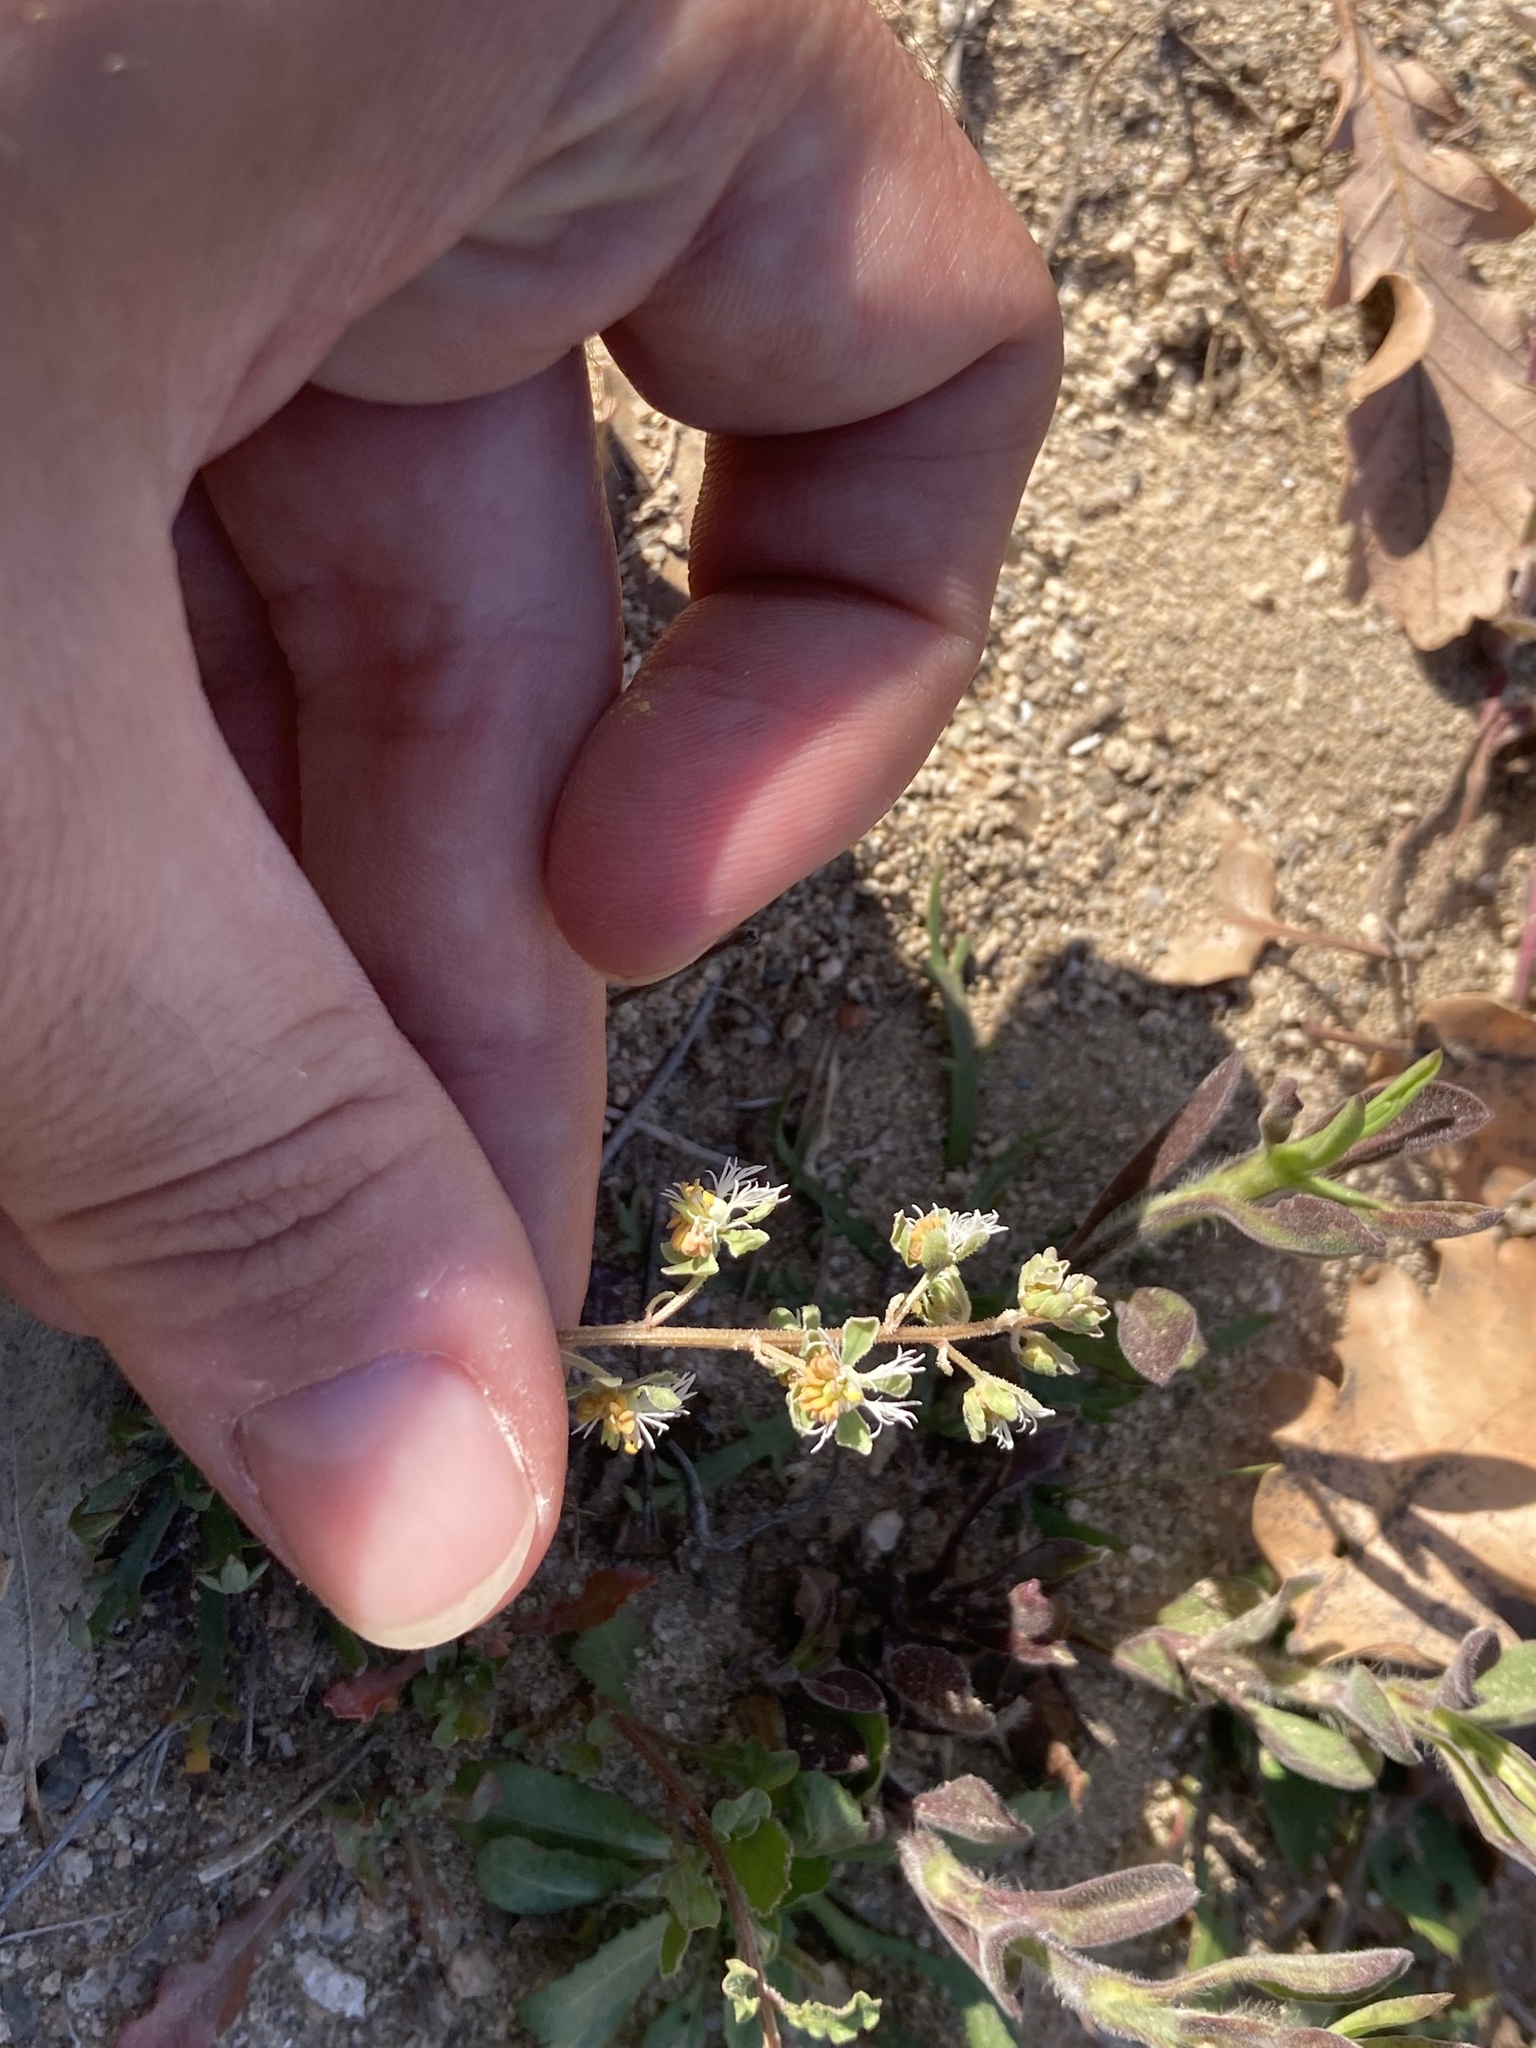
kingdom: Plantae
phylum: Tracheophyta
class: Magnoliopsida
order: Brassicales
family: Resedaceae
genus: Reseda
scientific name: Reseda phyteuma
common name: Corn mignonette
